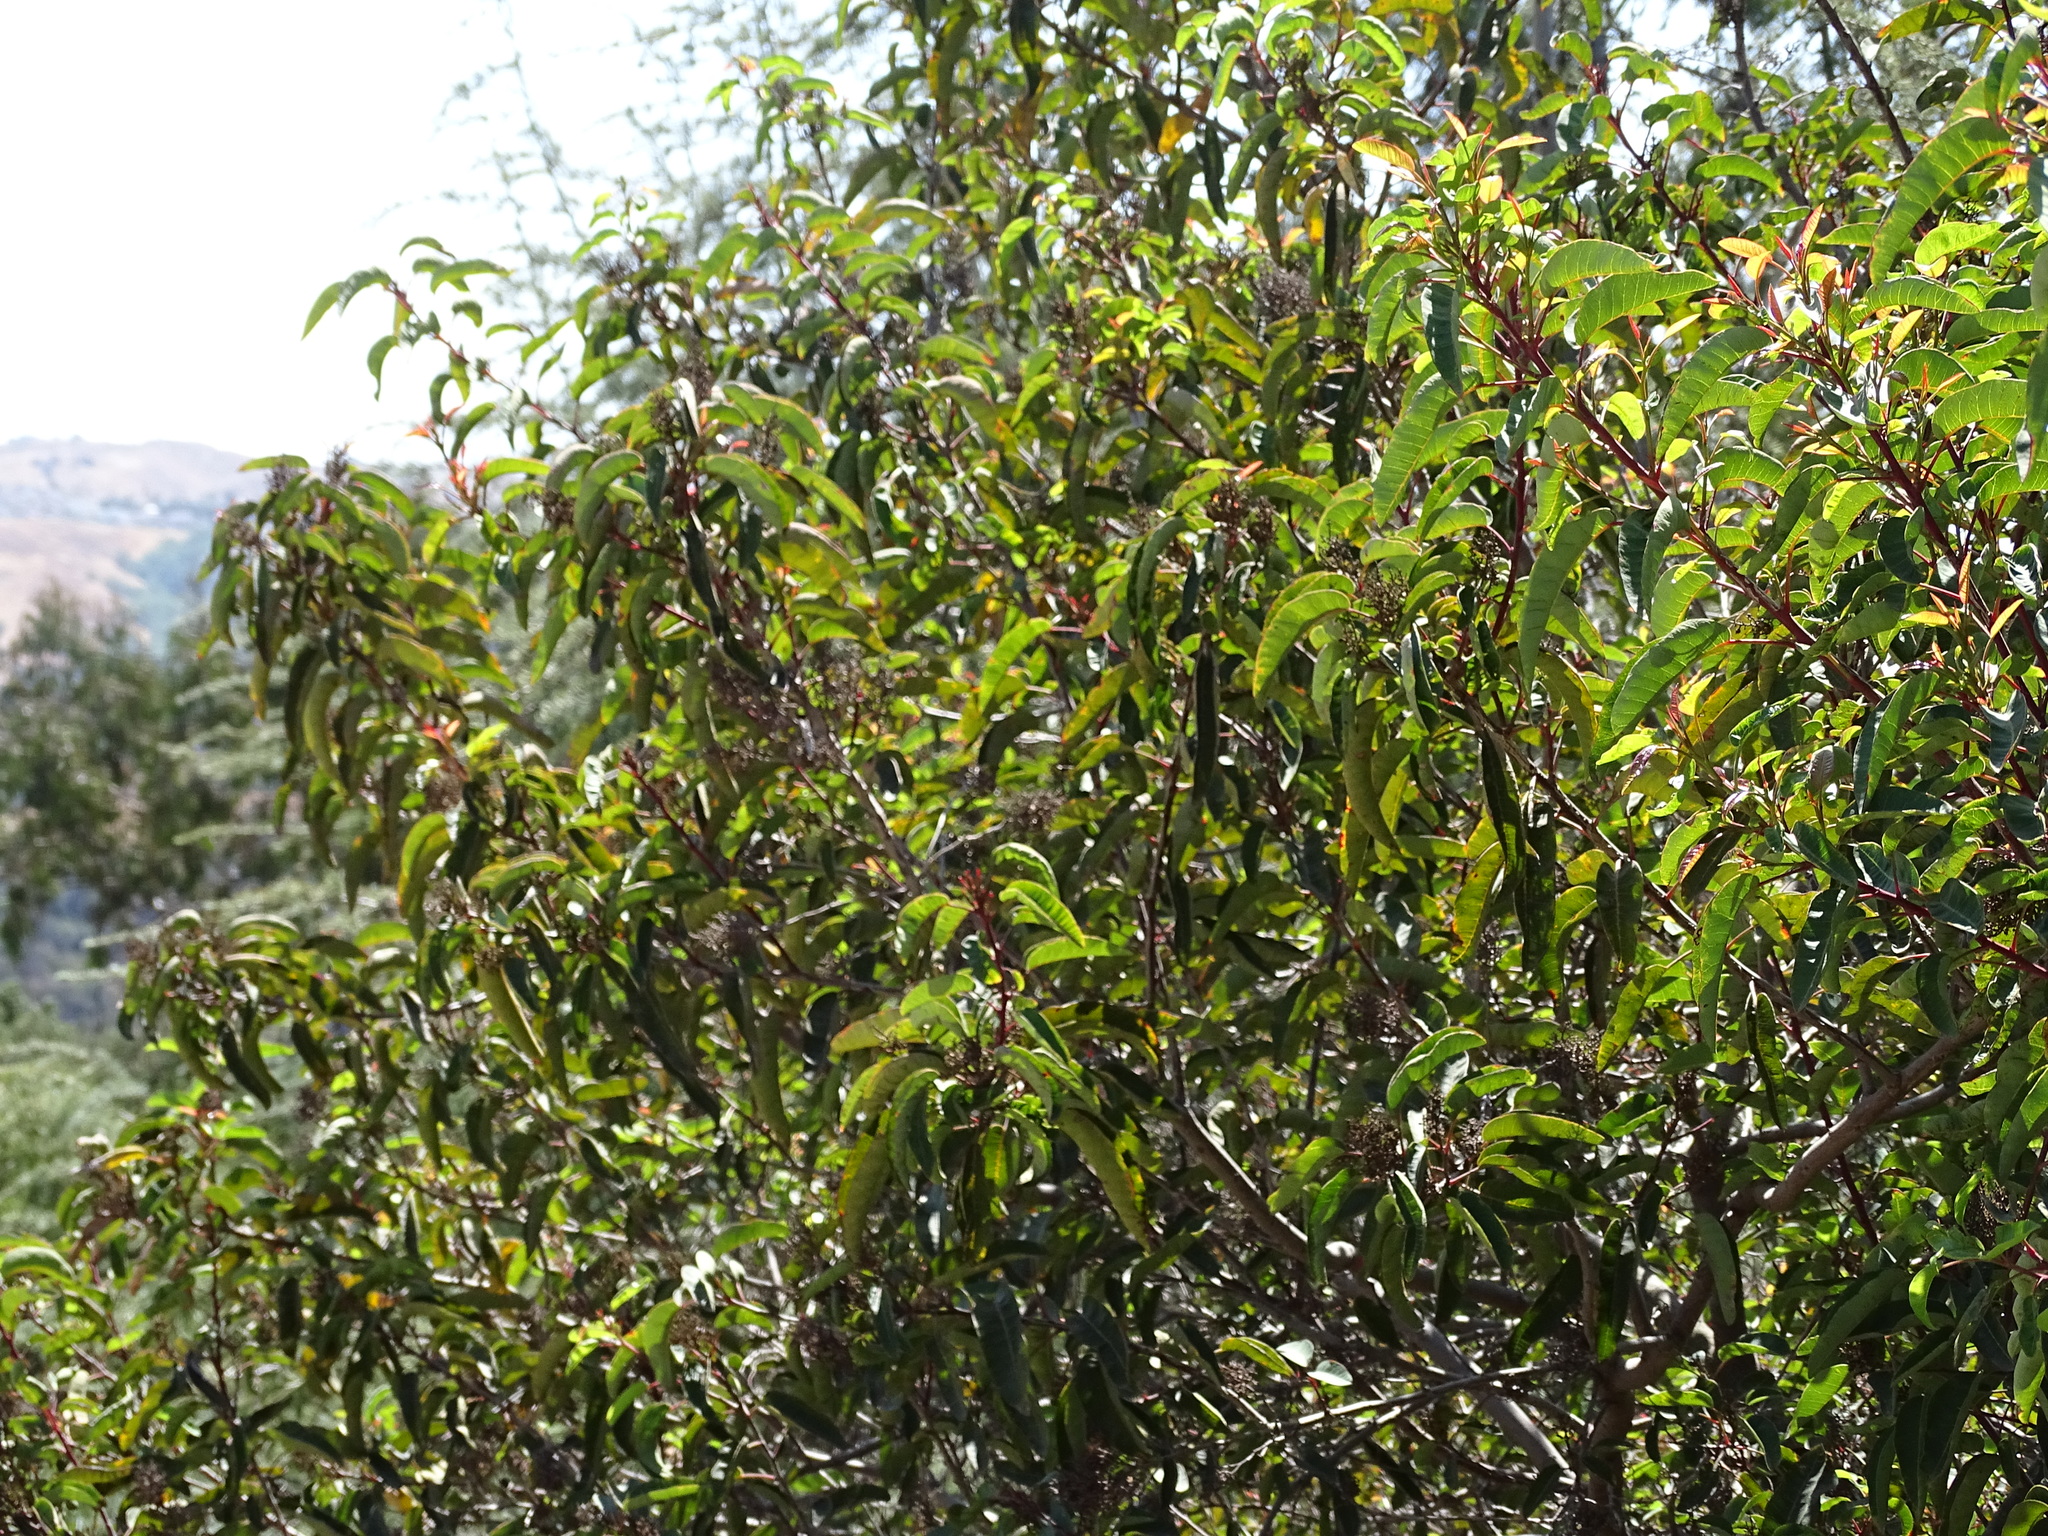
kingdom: Plantae
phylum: Tracheophyta
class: Magnoliopsida
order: Sapindales
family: Anacardiaceae
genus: Malosma
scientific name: Malosma laurina
